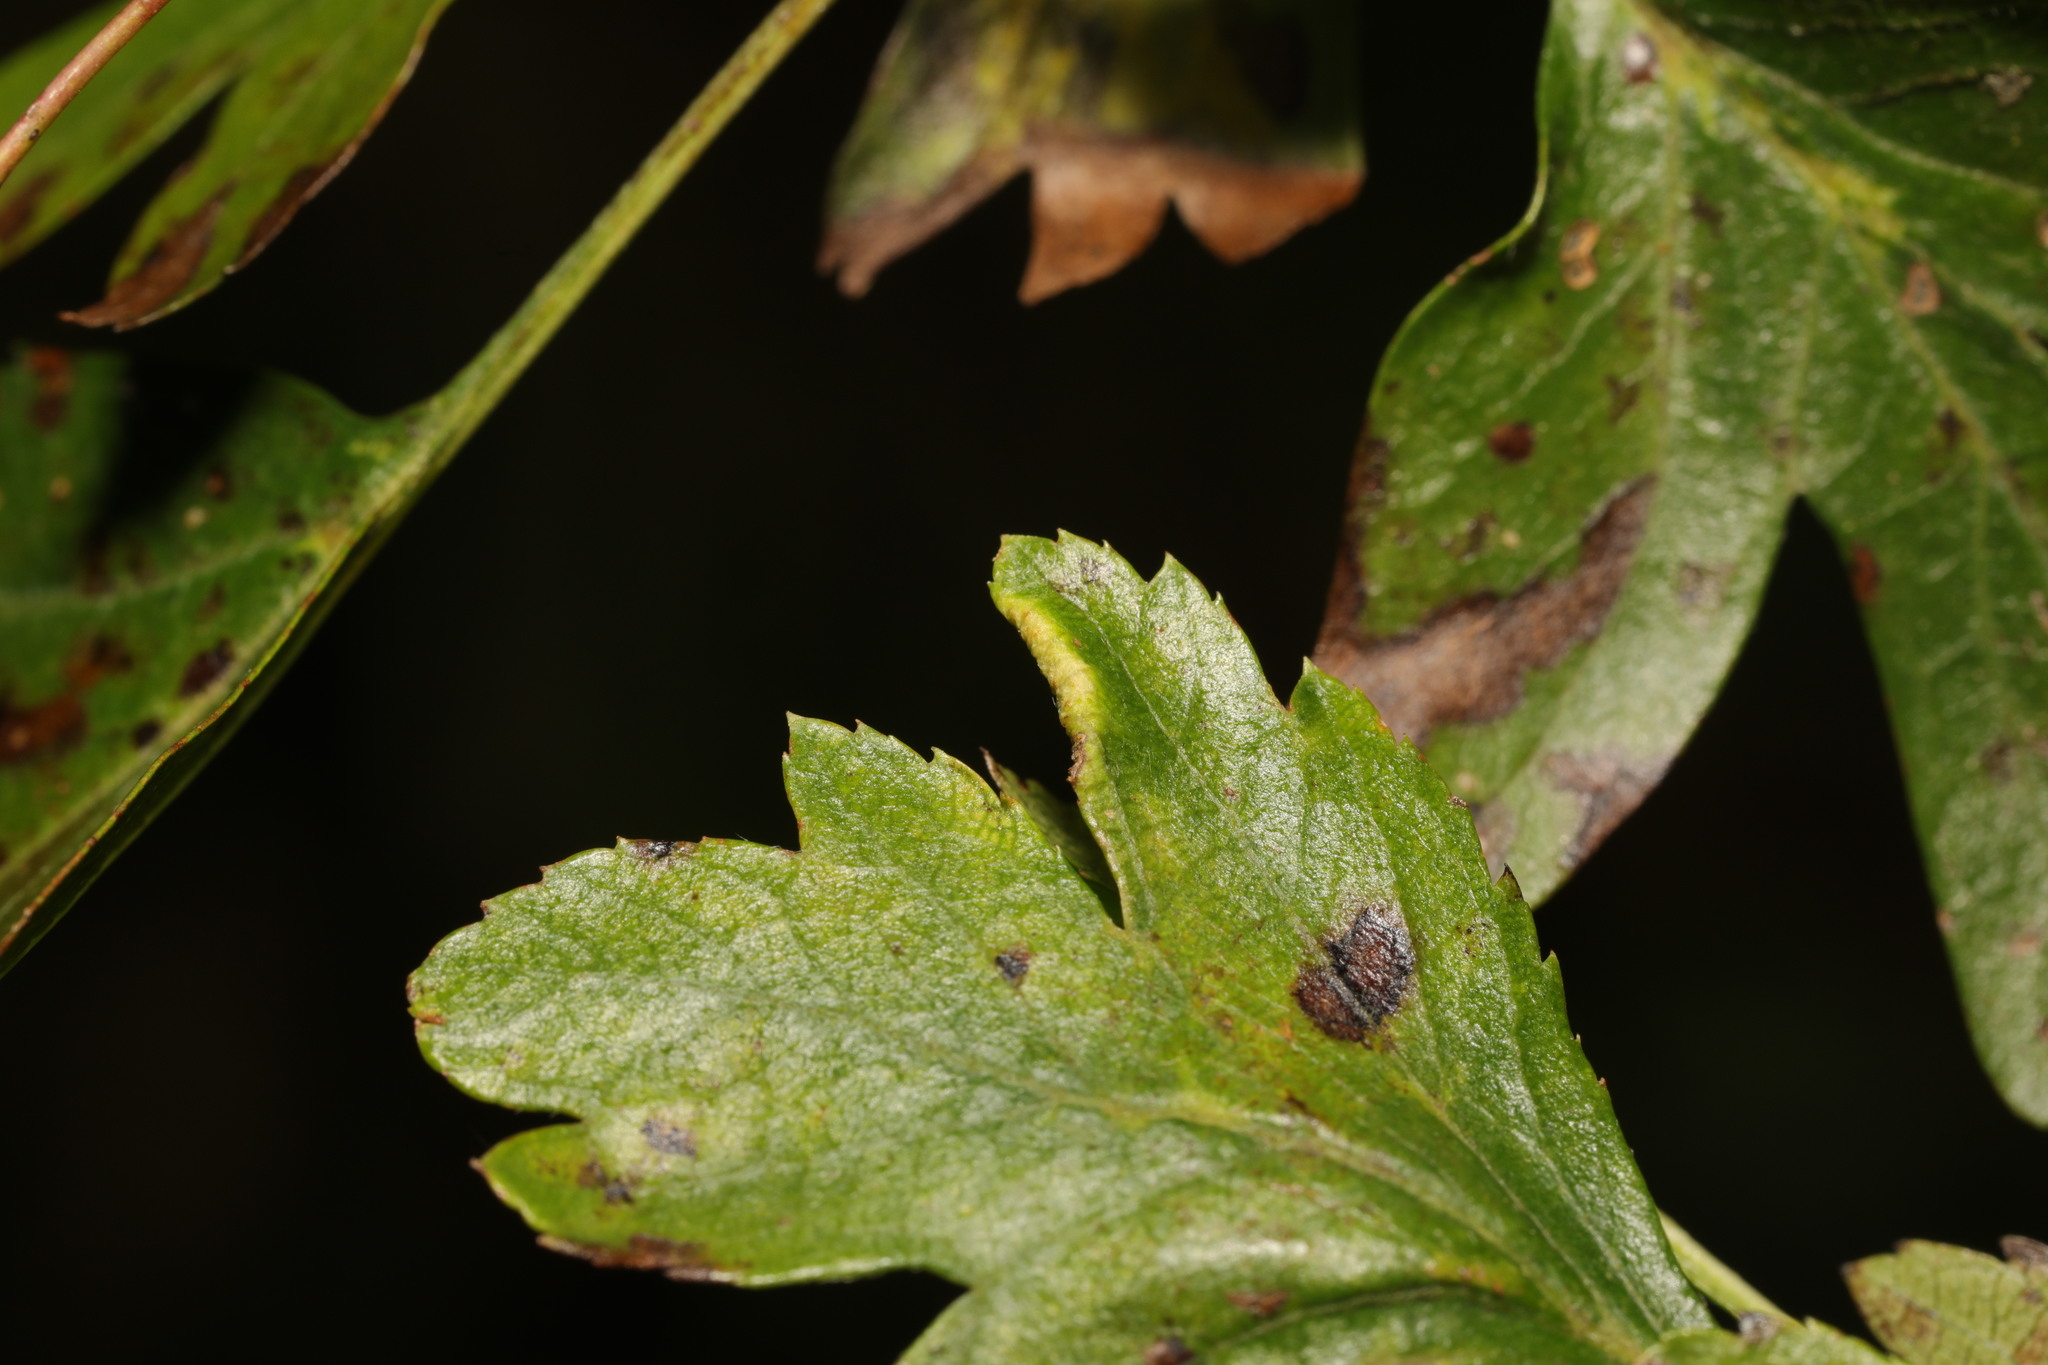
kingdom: Animalia
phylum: Arthropoda
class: Arachnida
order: Trombidiformes
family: Eriophyidae
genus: Phyllocoptes
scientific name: Phyllocoptes goniothorax
